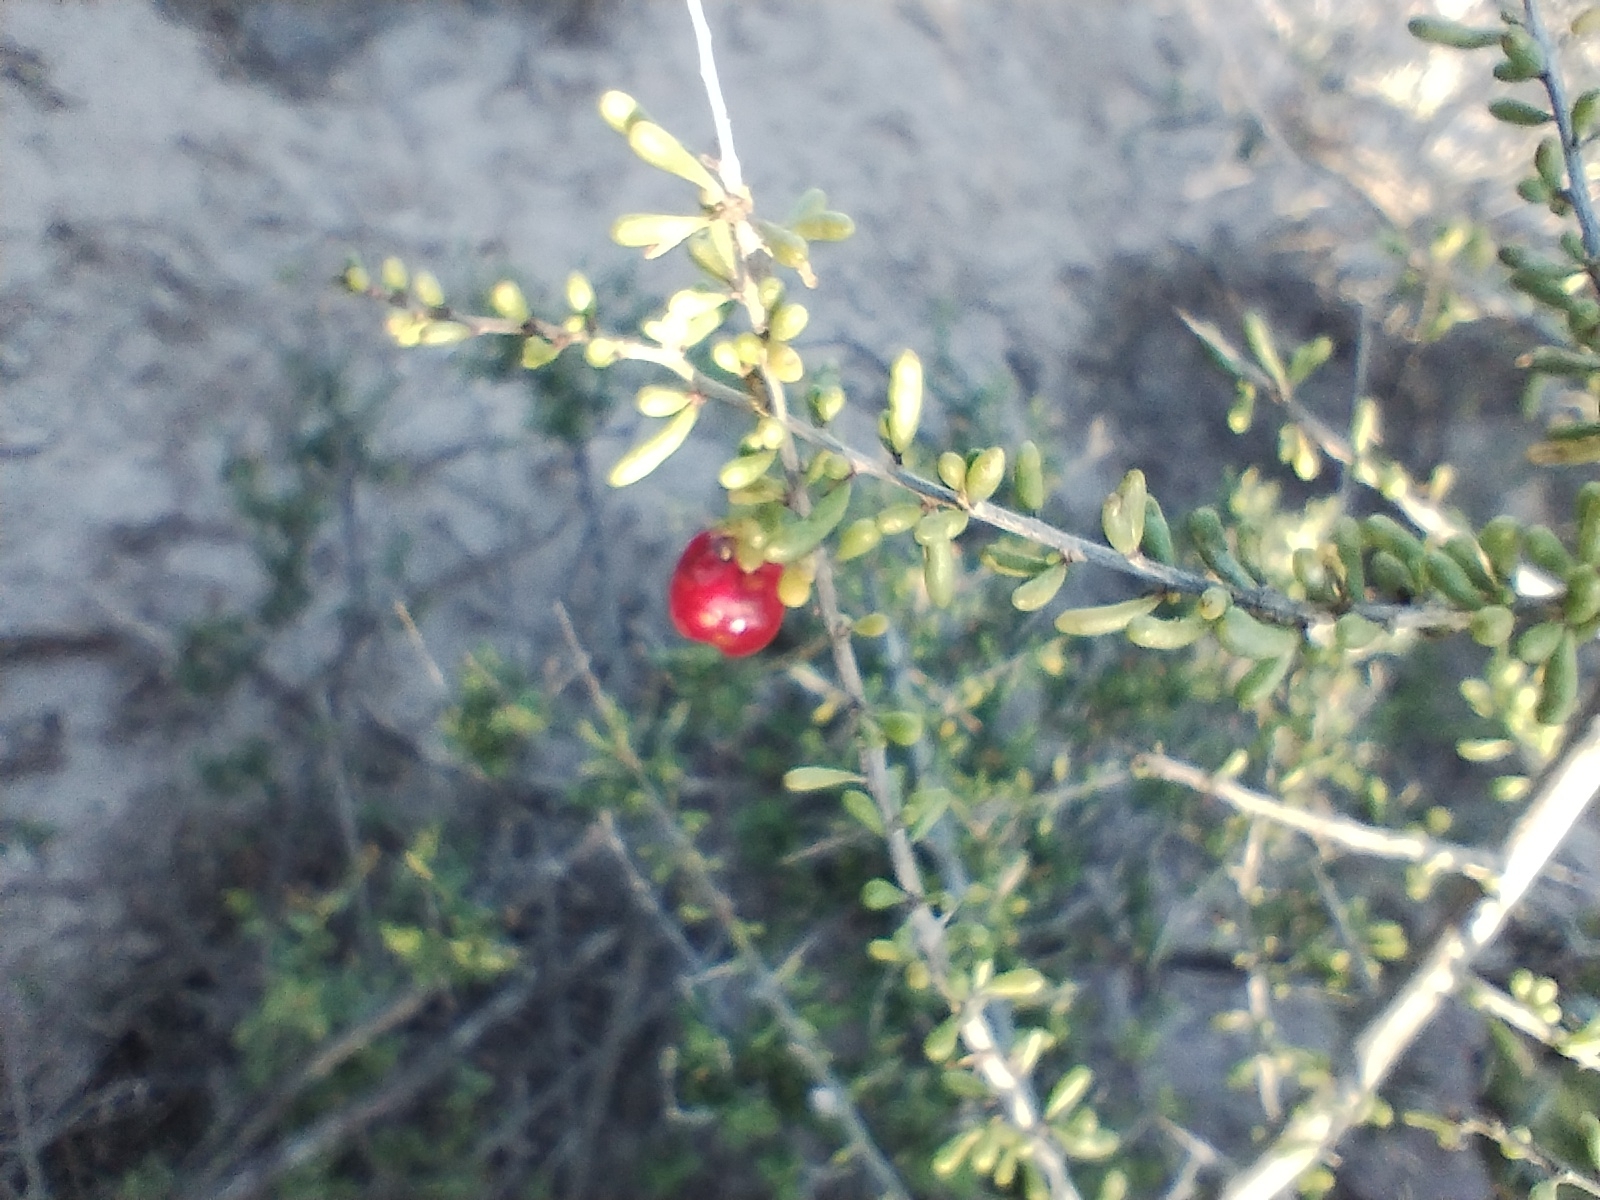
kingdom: Plantae
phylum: Tracheophyta
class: Magnoliopsida
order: Solanales
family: Solanaceae
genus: Lycium
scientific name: Lycium infaustum
